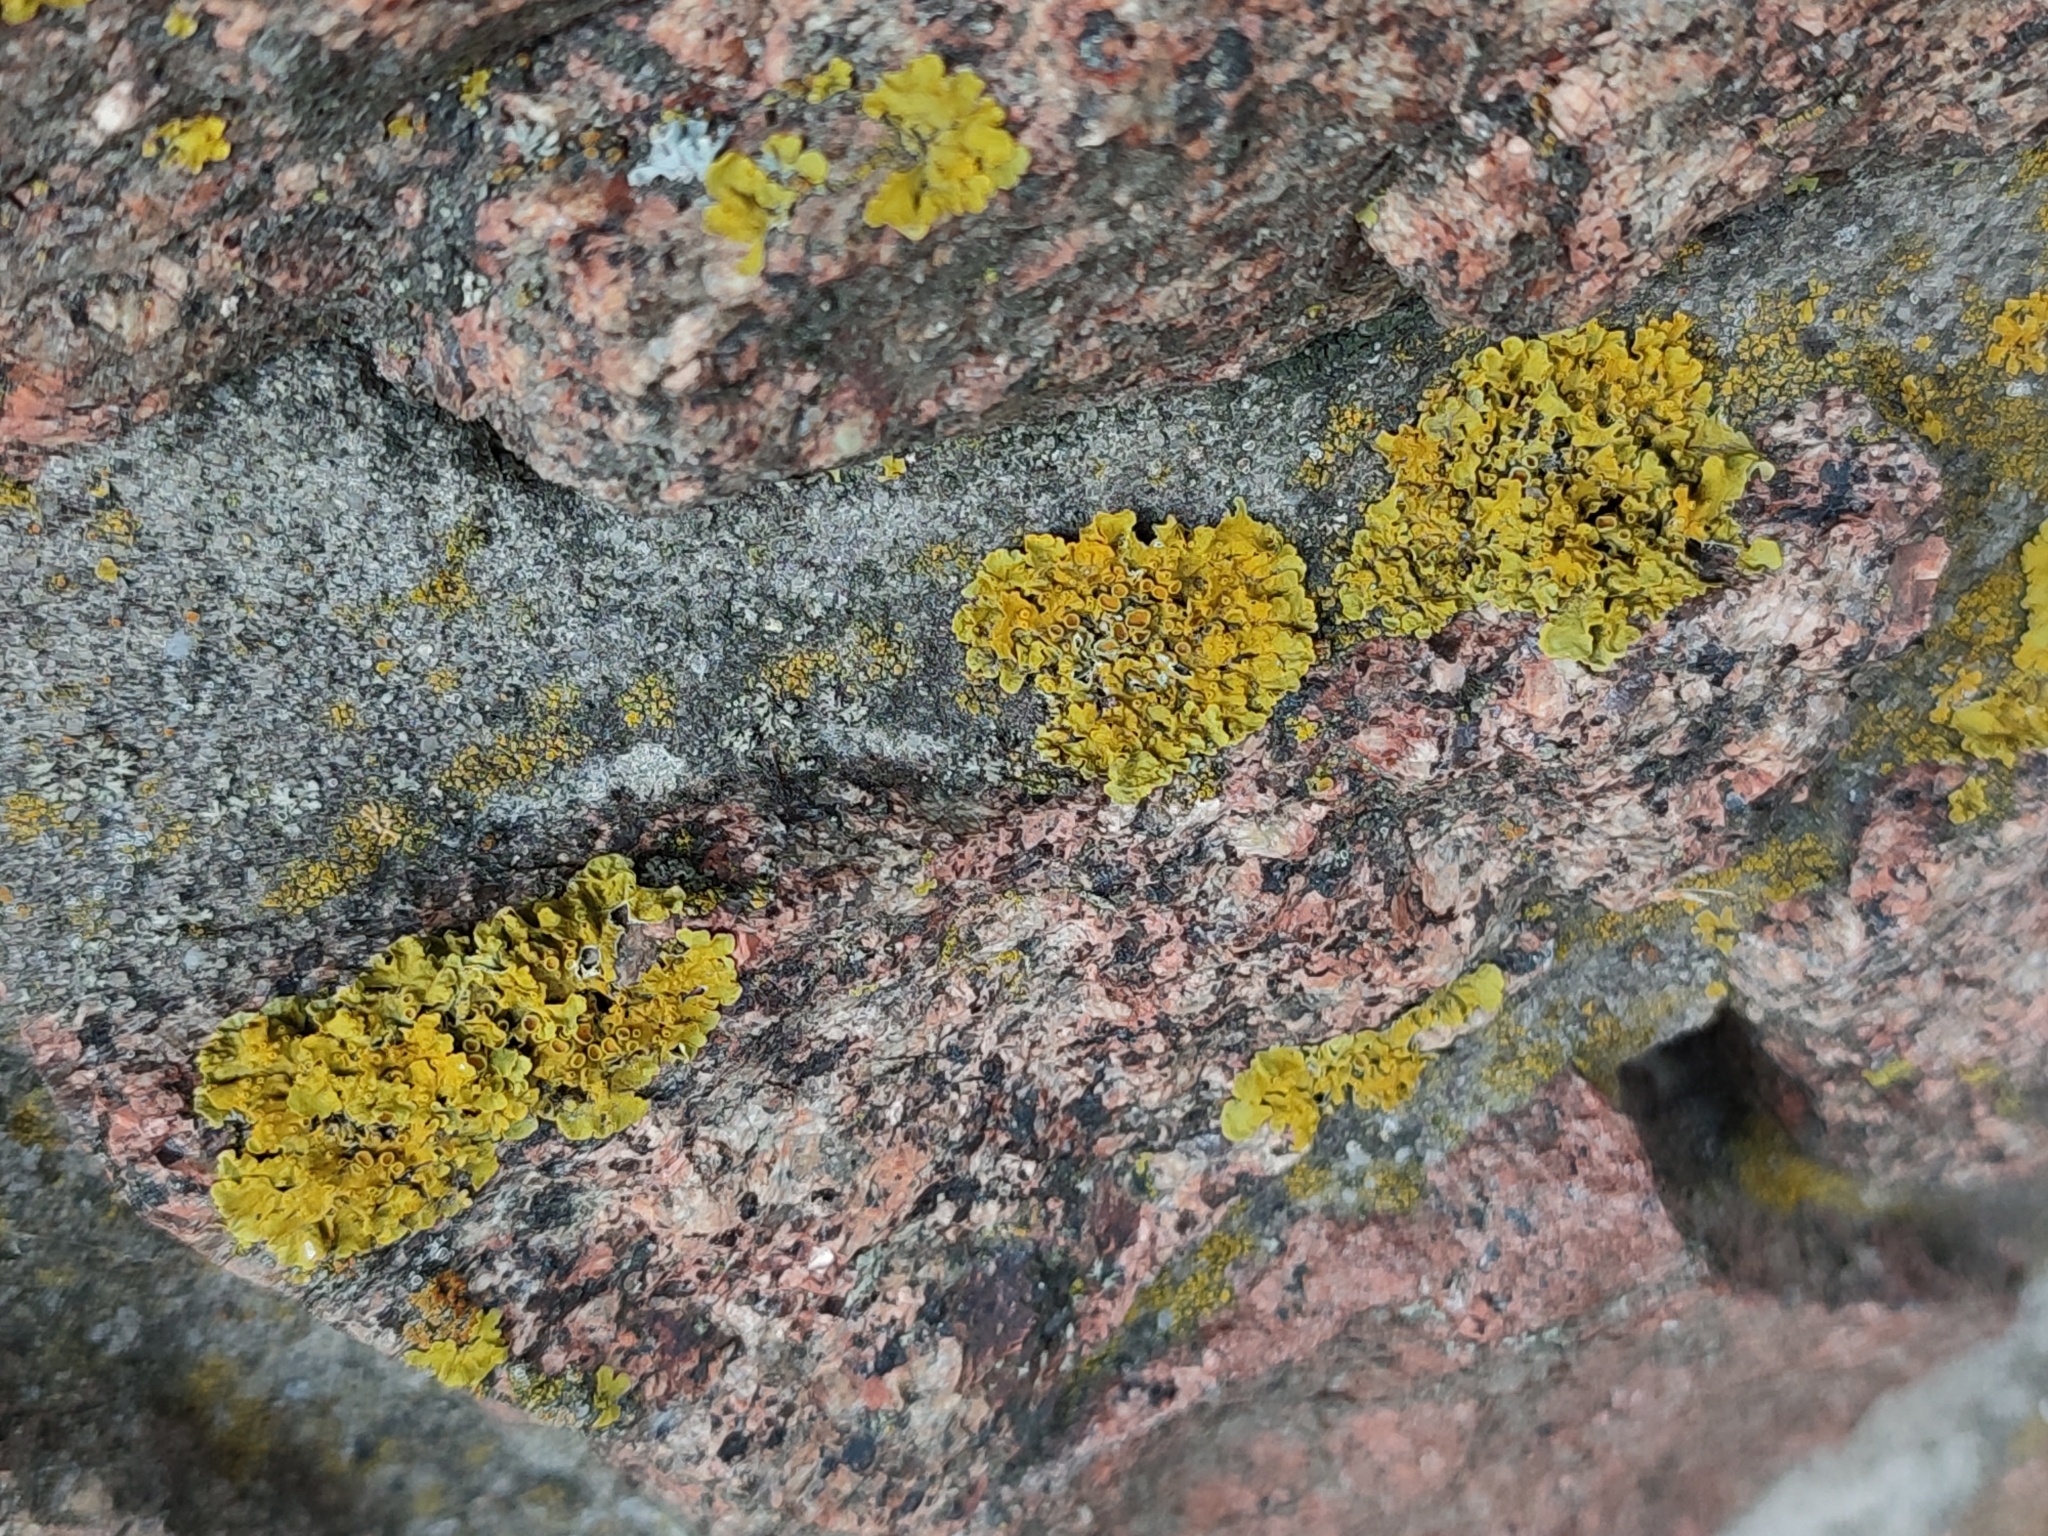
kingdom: Fungi
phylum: Ascomycota
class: Lecanoromycetes
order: Teloschistales
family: Teloschistaceae
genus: Xanthoria
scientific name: Xanthoria parietina
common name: Common orange lichen
